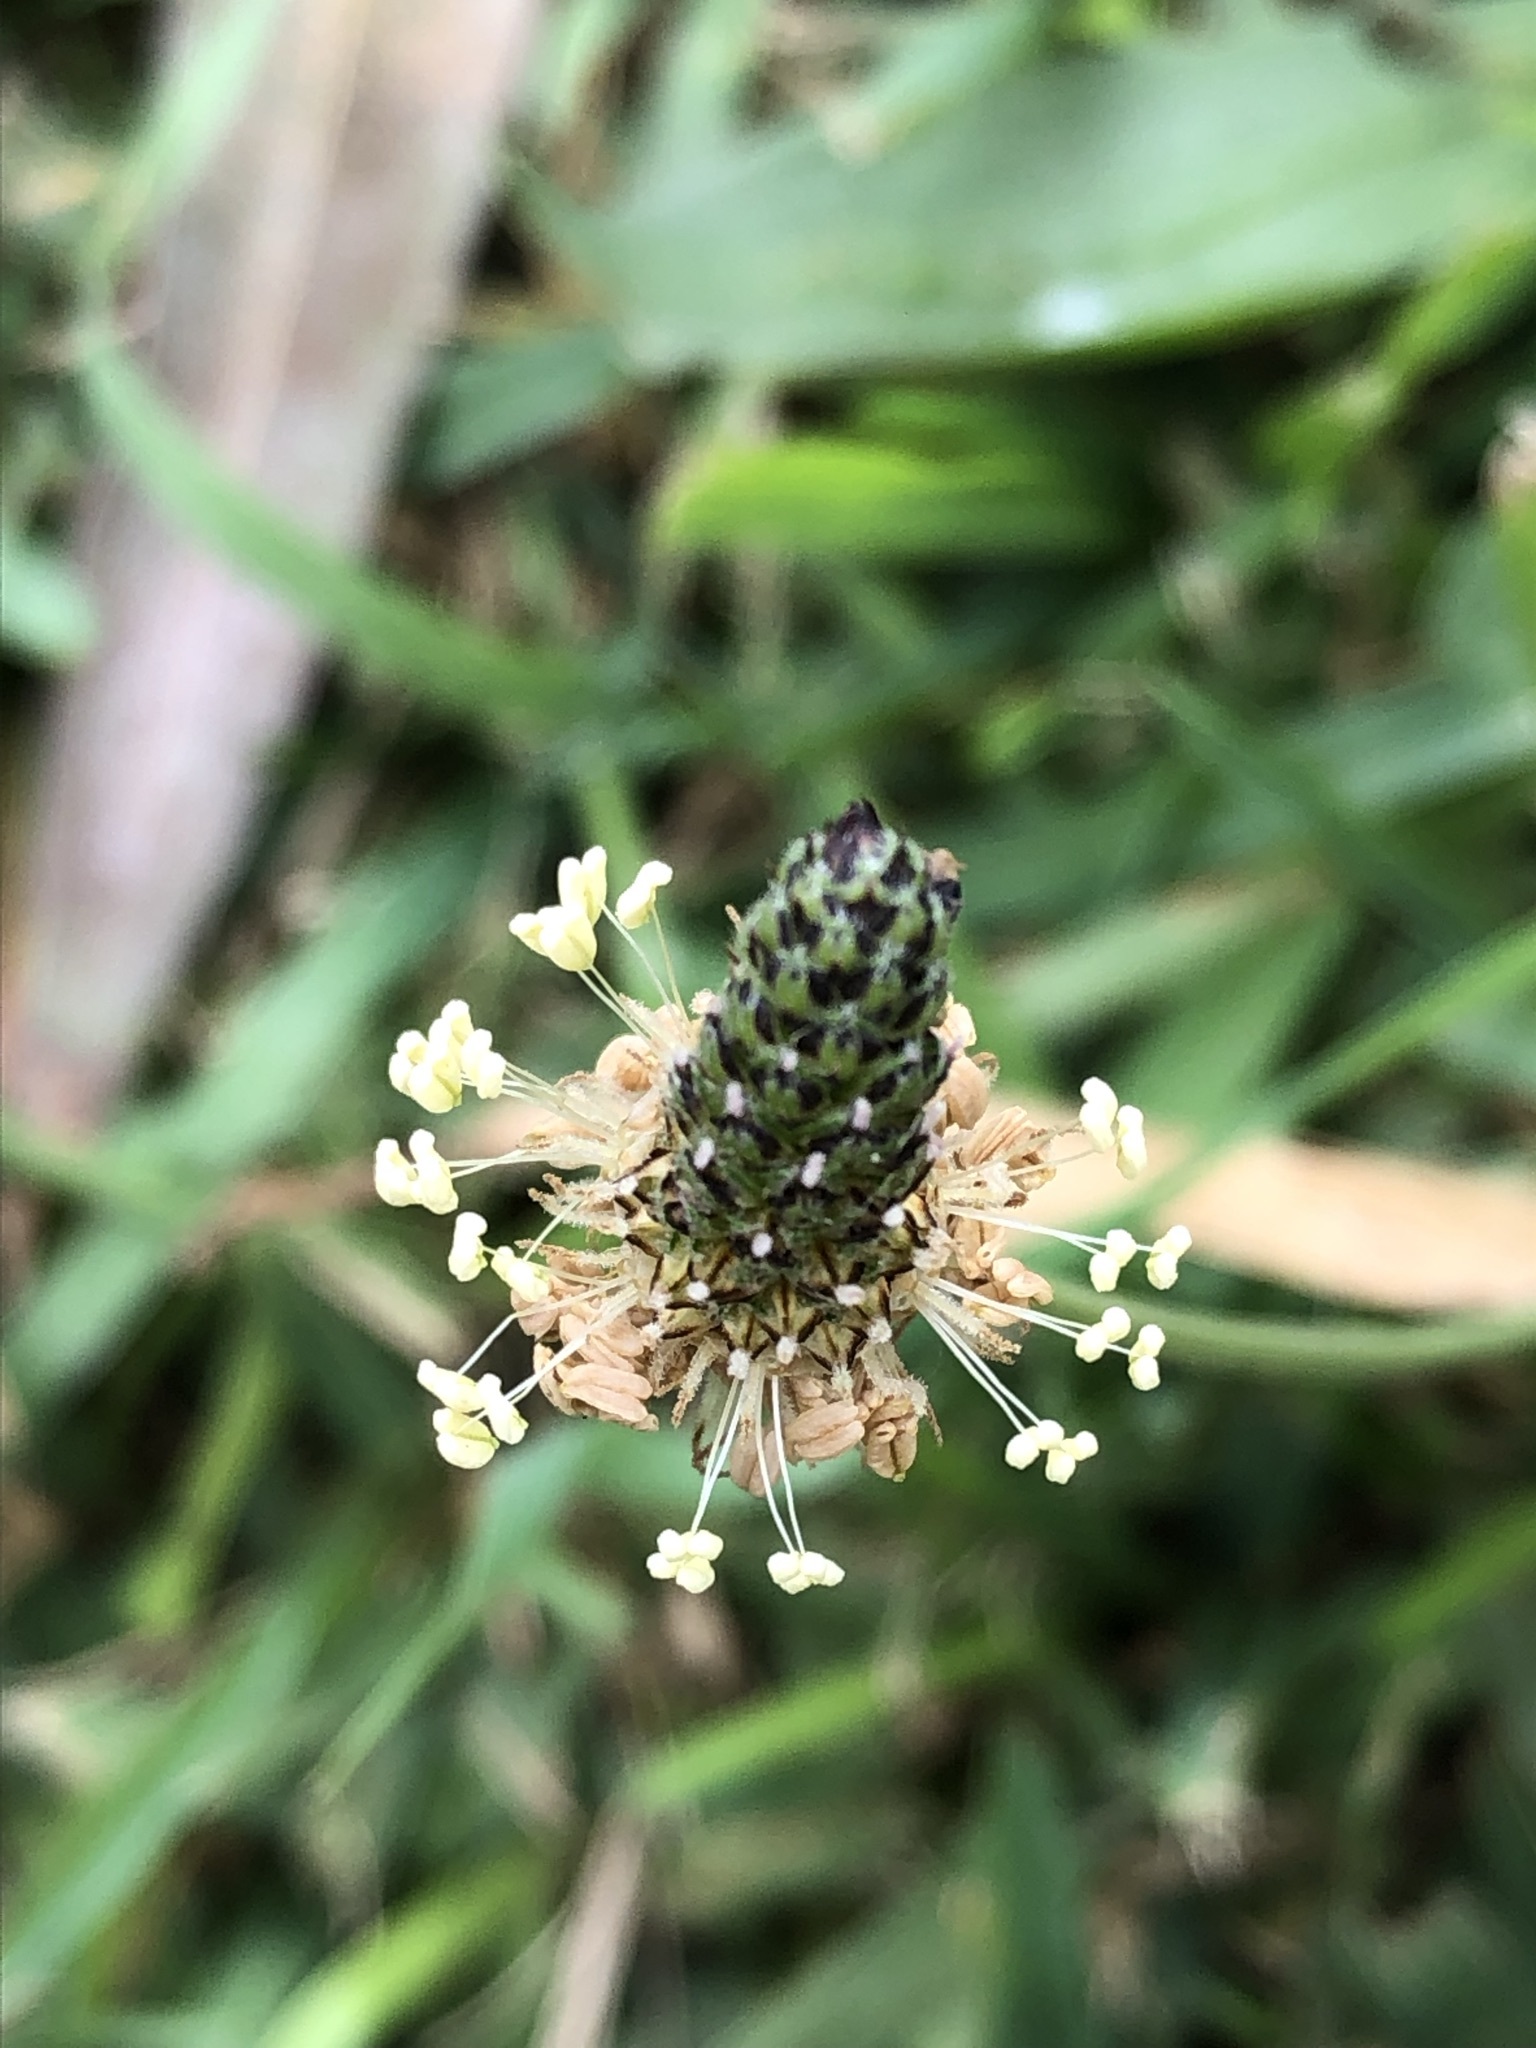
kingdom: Plantae
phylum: Tracheophyta
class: Magnoliopsida
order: Lamiales
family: Plantaginaceae
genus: Plantago
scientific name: Plantago lanceolata
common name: Ribwort plantain
